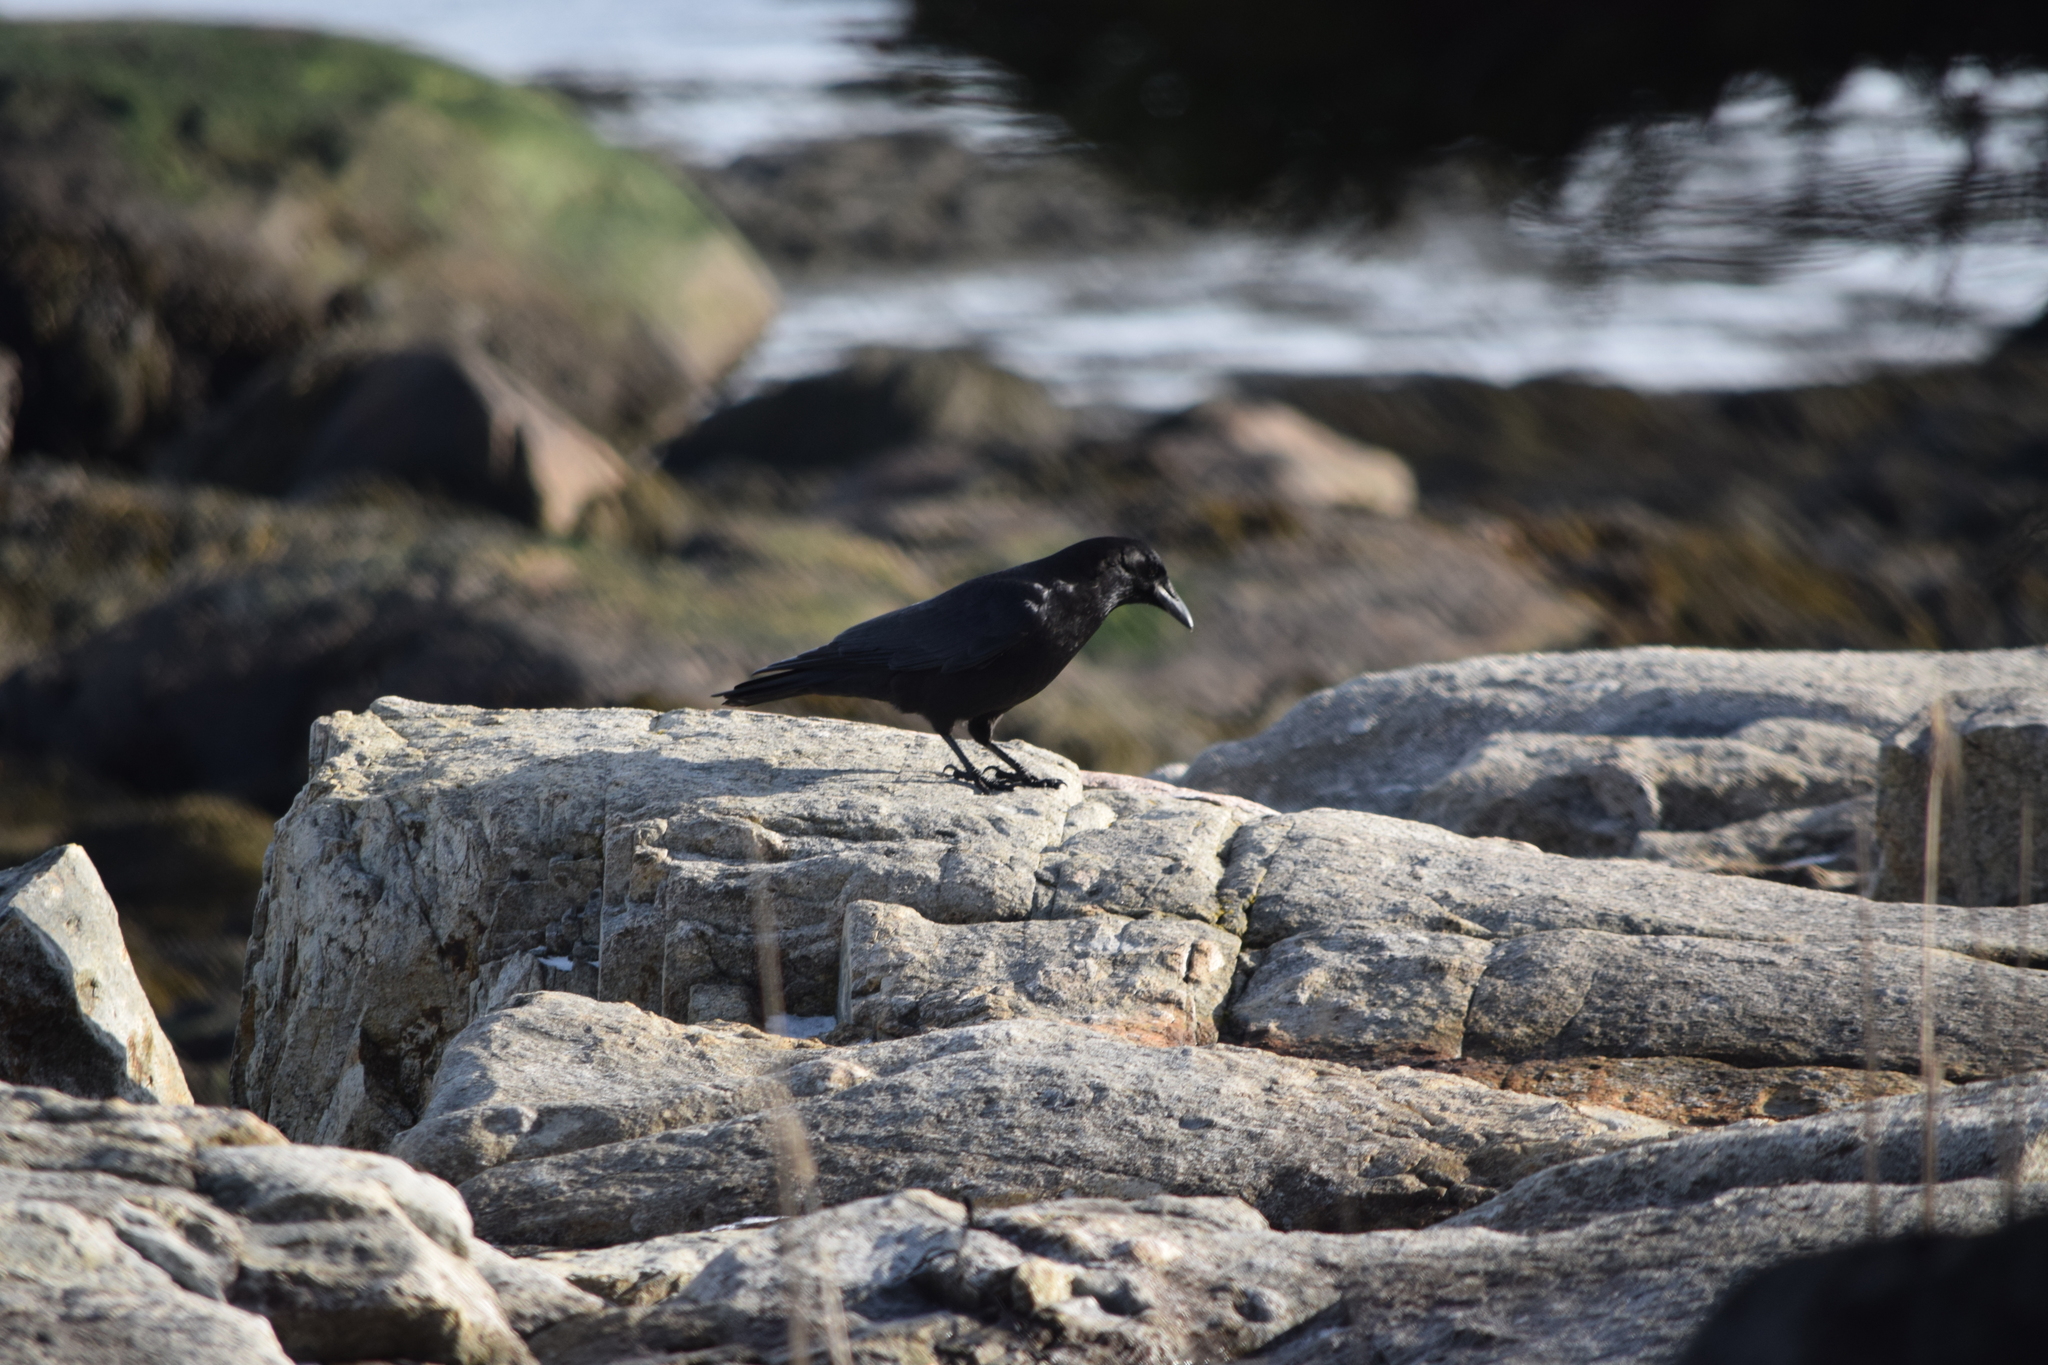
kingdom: Animalia
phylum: Chordata
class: Aves
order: Passeriformes
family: Corvidae
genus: Corvus
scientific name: Corvus brachyrhynchos
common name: American crow
